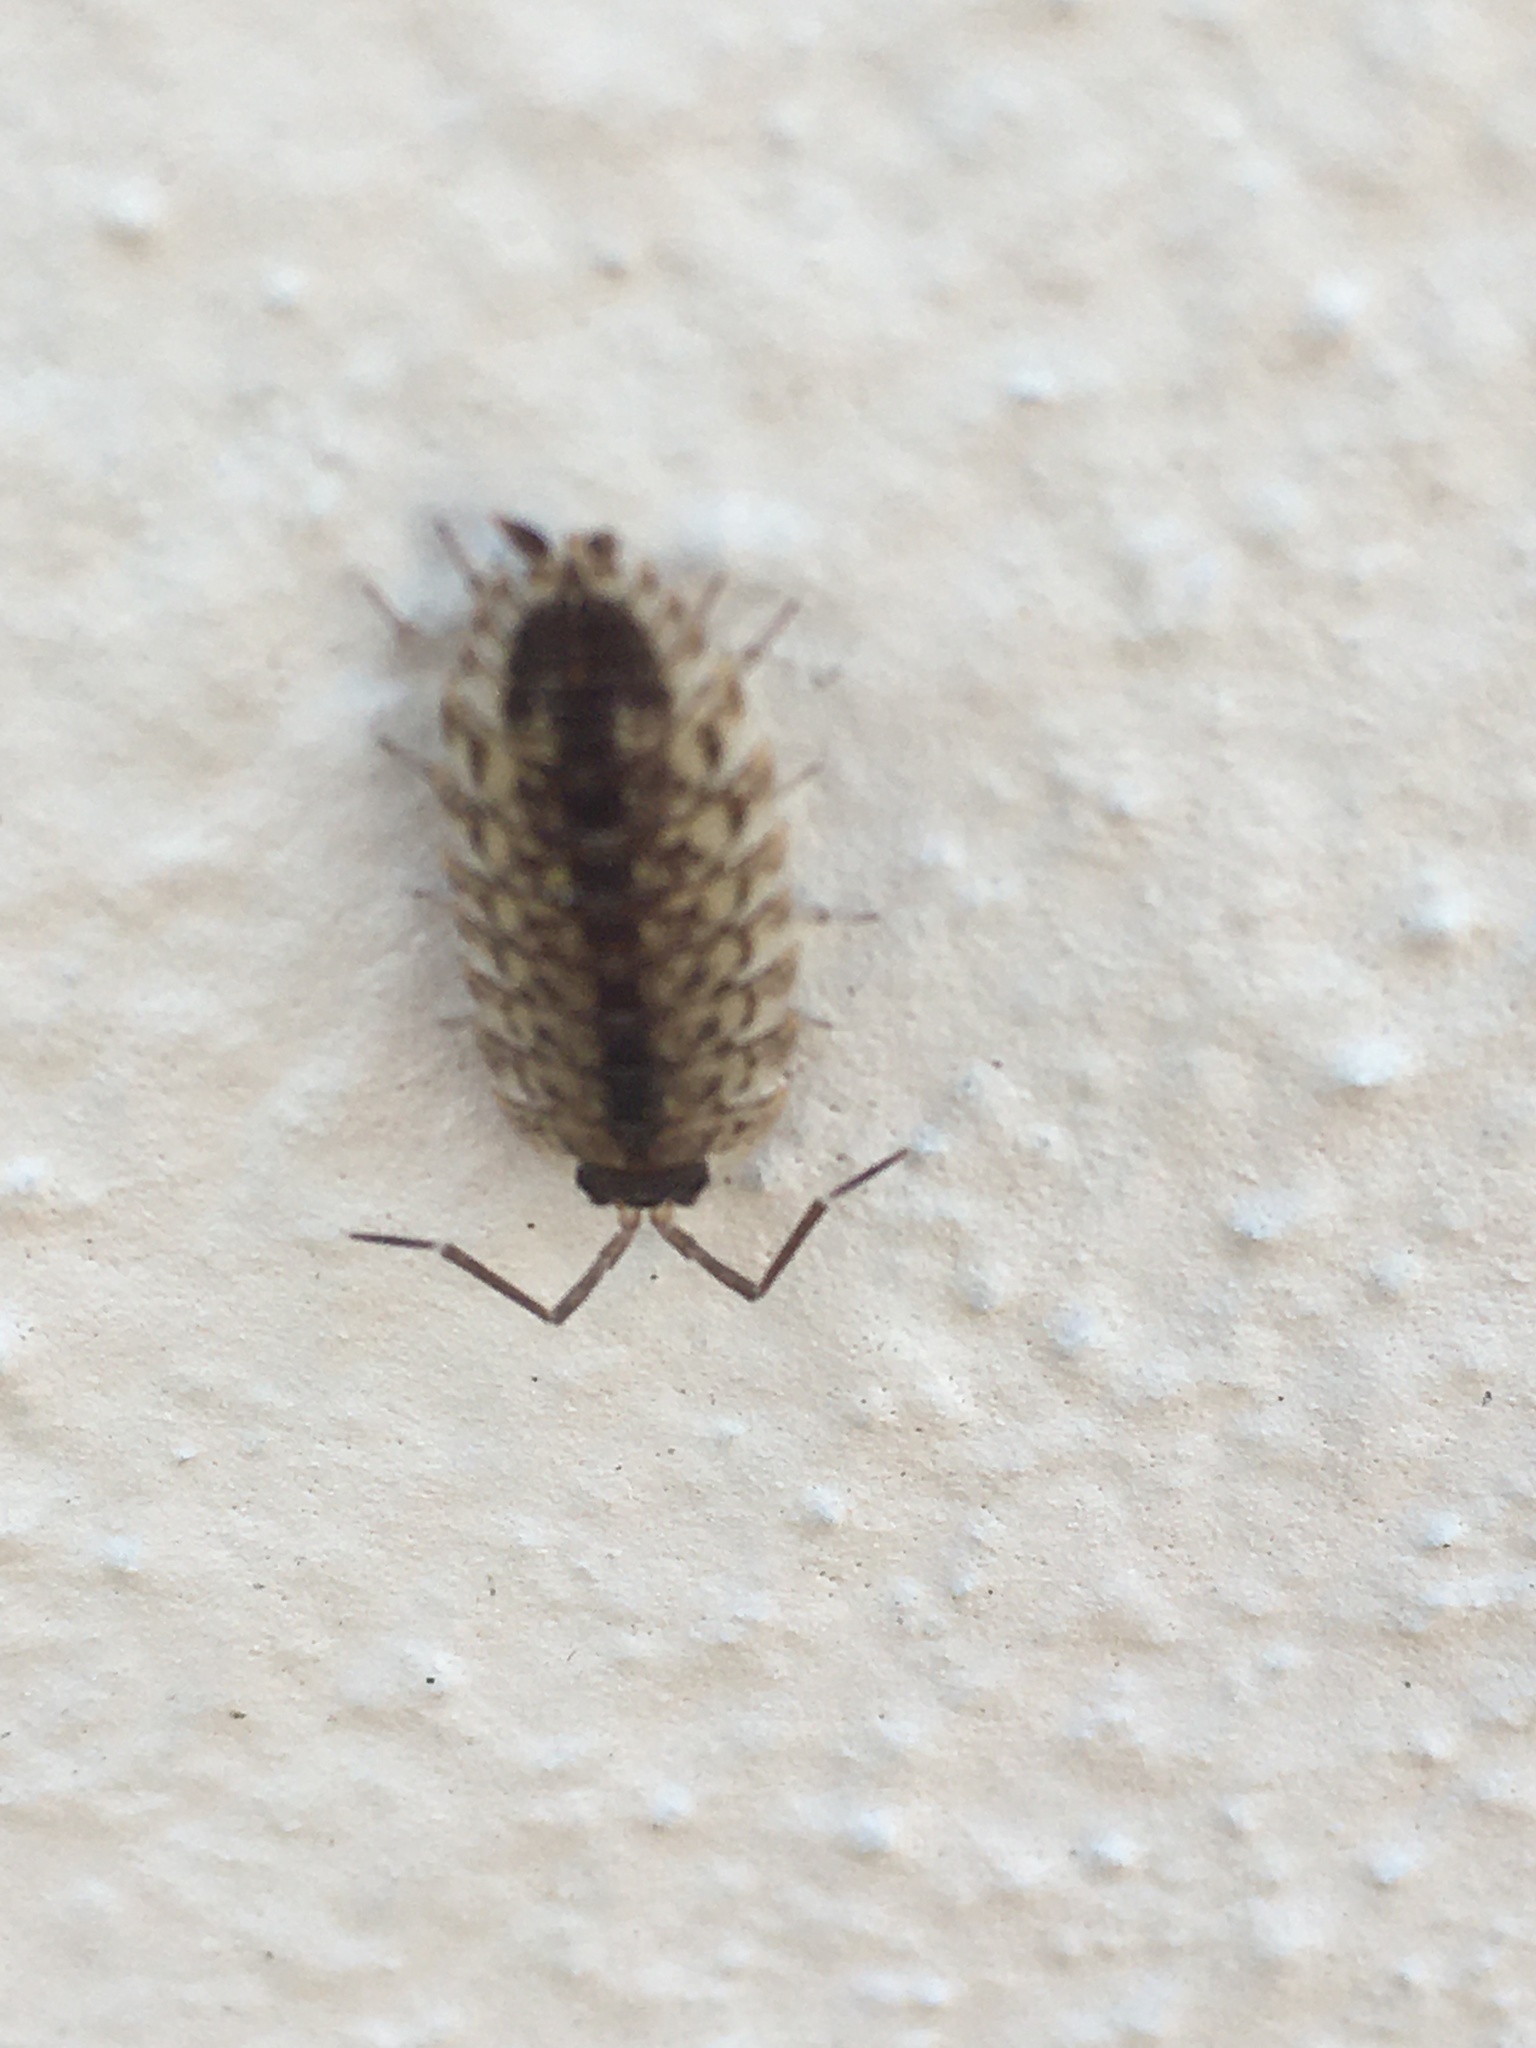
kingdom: Animalia
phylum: Arthropoda
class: Malacostraca
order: Isopoda
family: Porcellionidae
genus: Porcellio
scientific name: Porcellio spinicornis
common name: Painted woodlouse
